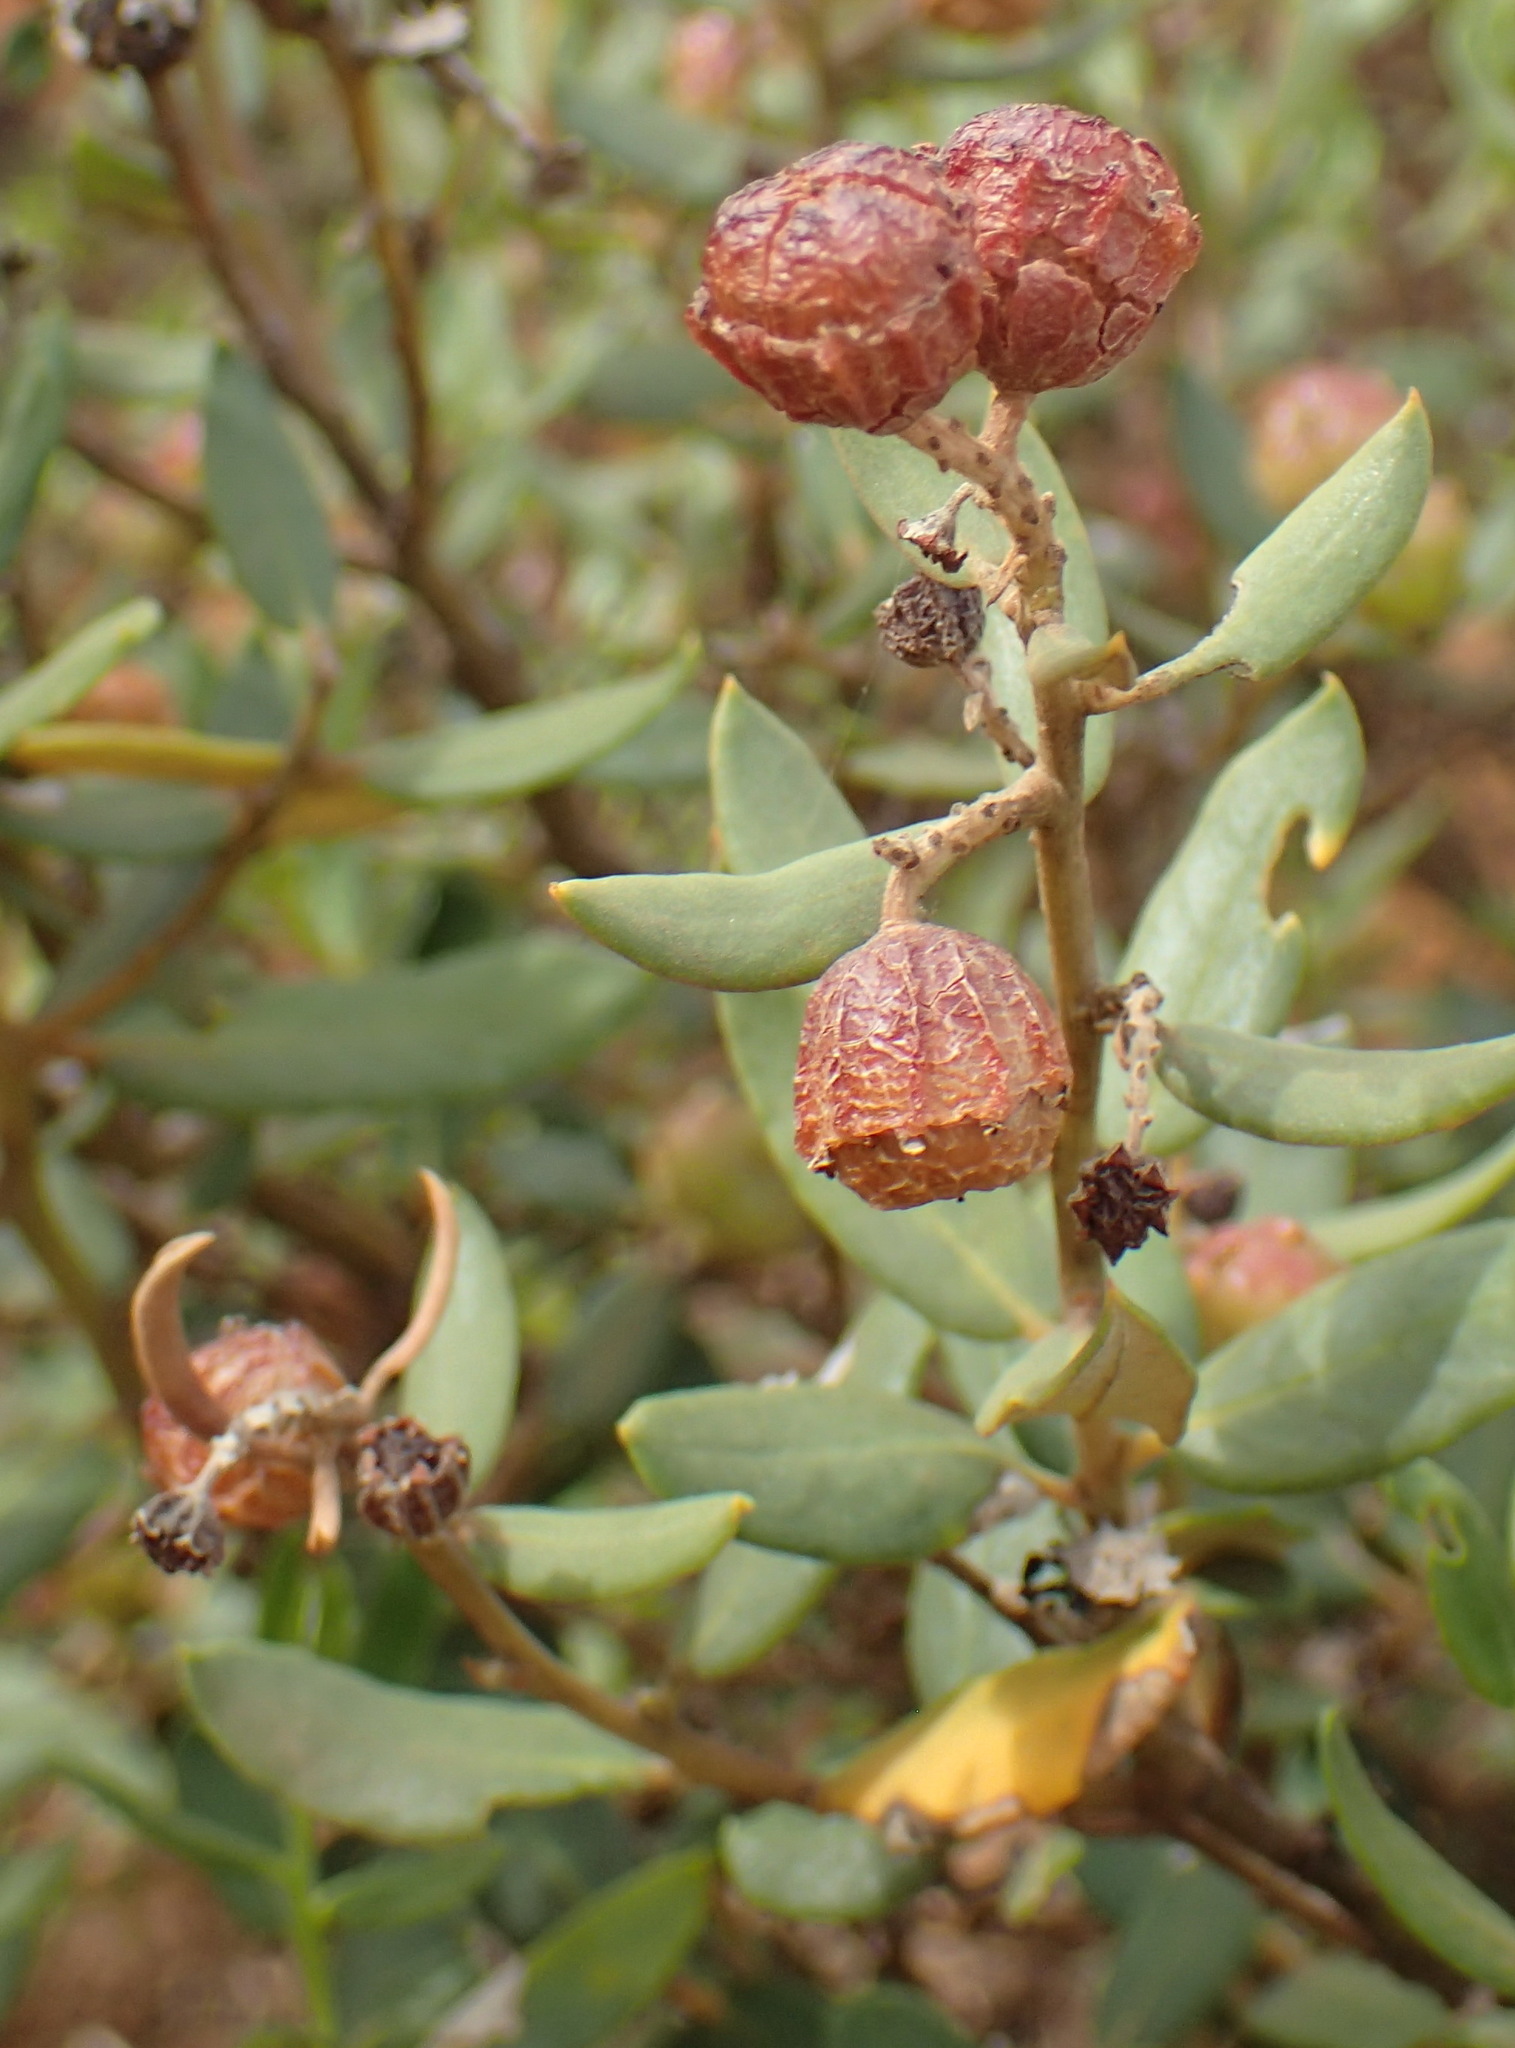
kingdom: Plantae
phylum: Tracheophyta
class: Magnoliopsida
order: Rosales
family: Rhamnaceae
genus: Phylica
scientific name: Phylica oleifolia
